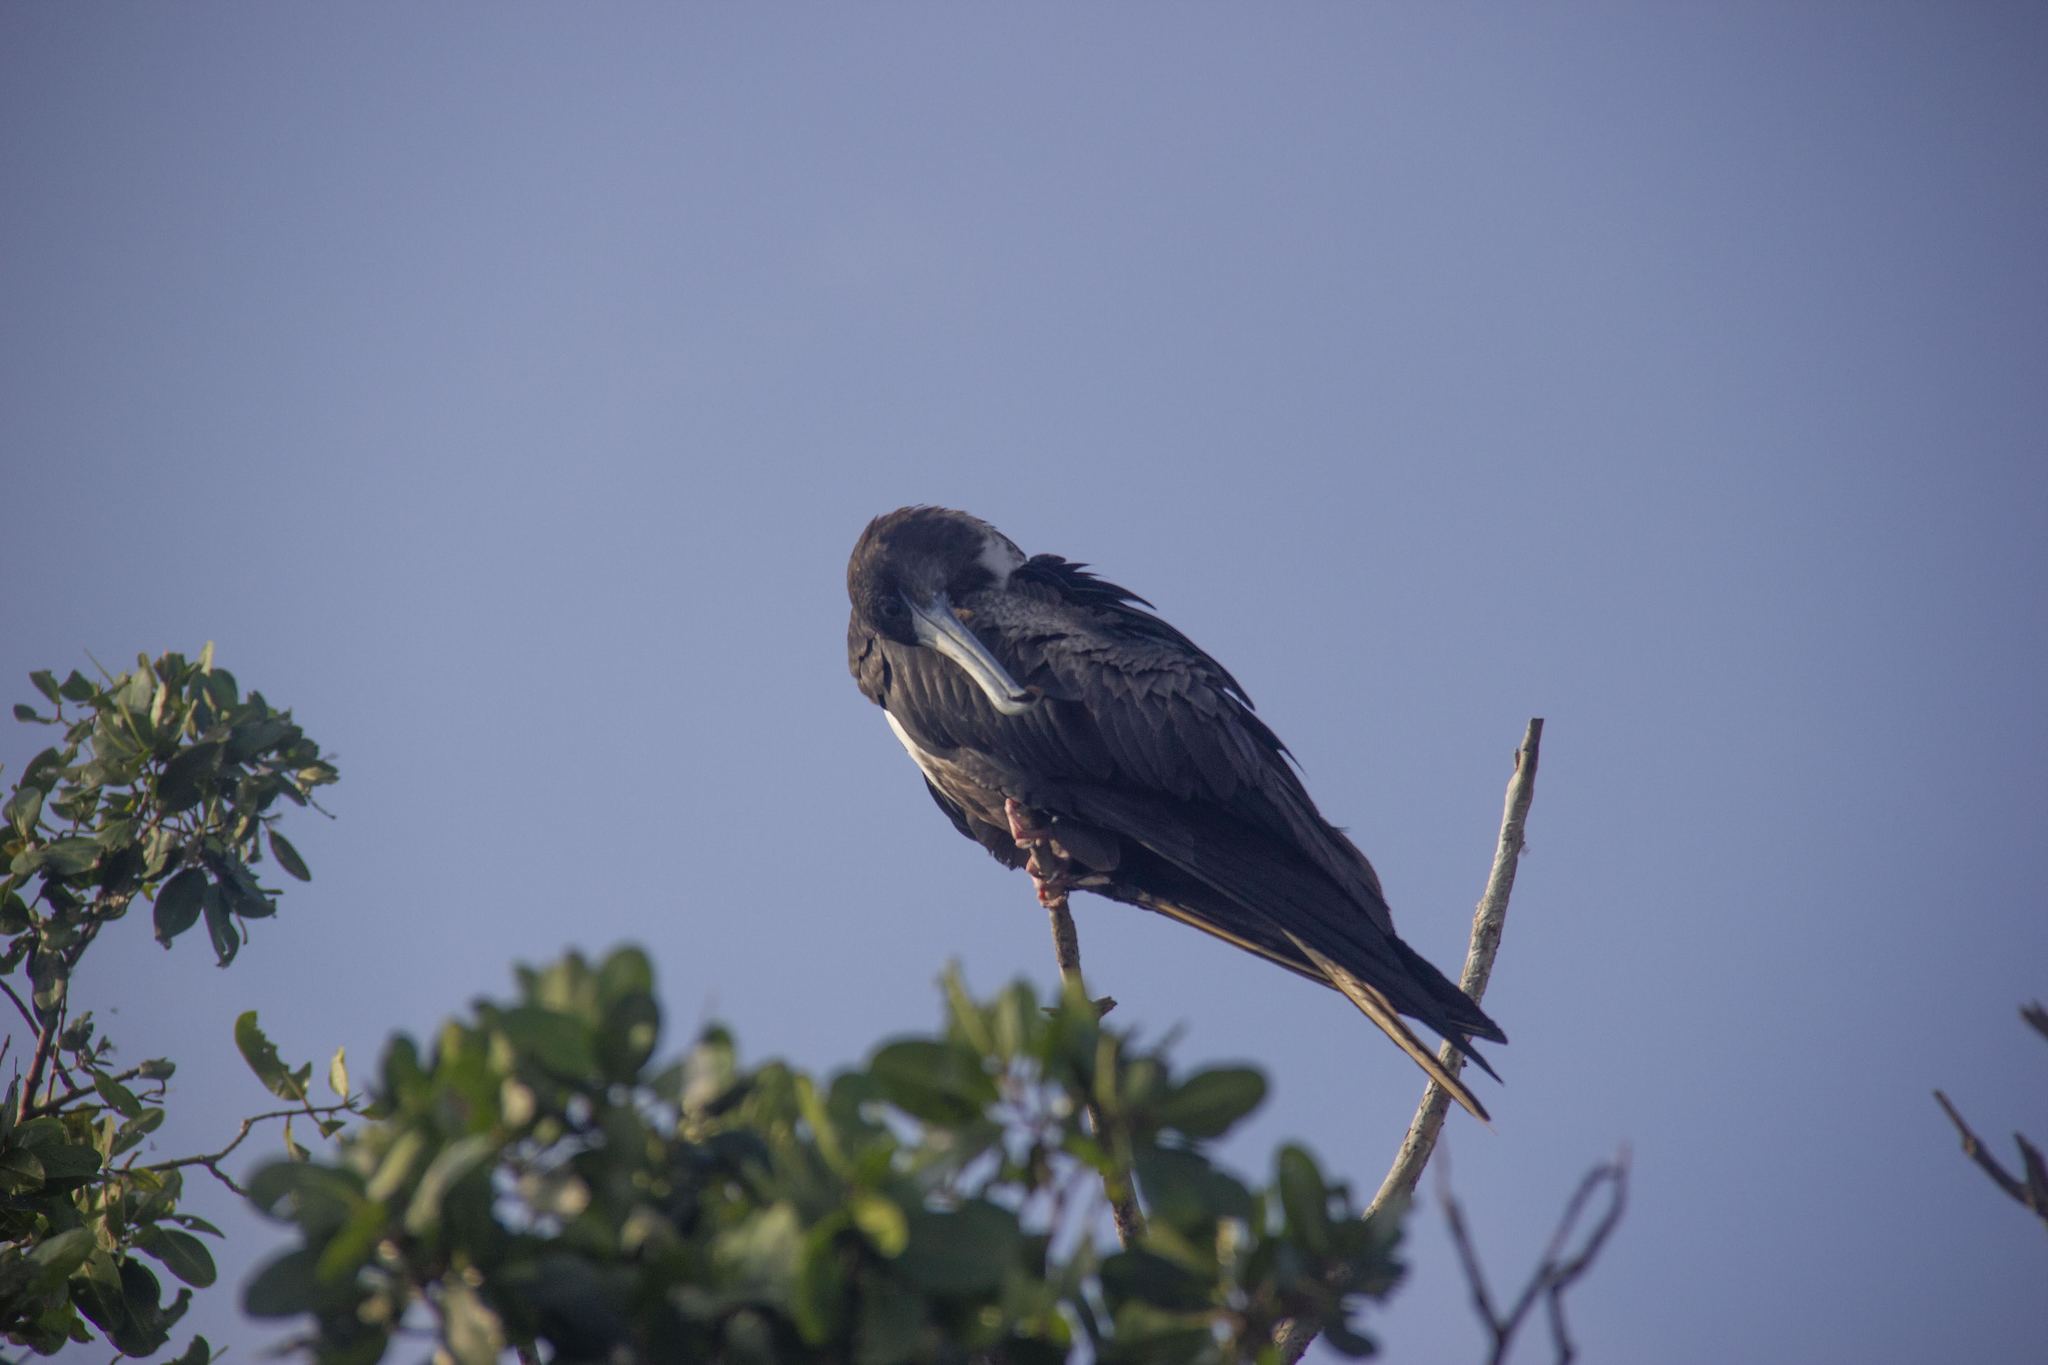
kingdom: Animalia
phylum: Chordata
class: Aves
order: Suliformes
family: Fregatidae
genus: Fregata
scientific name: Fregata magnificens
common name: Magnificent frigatebird
